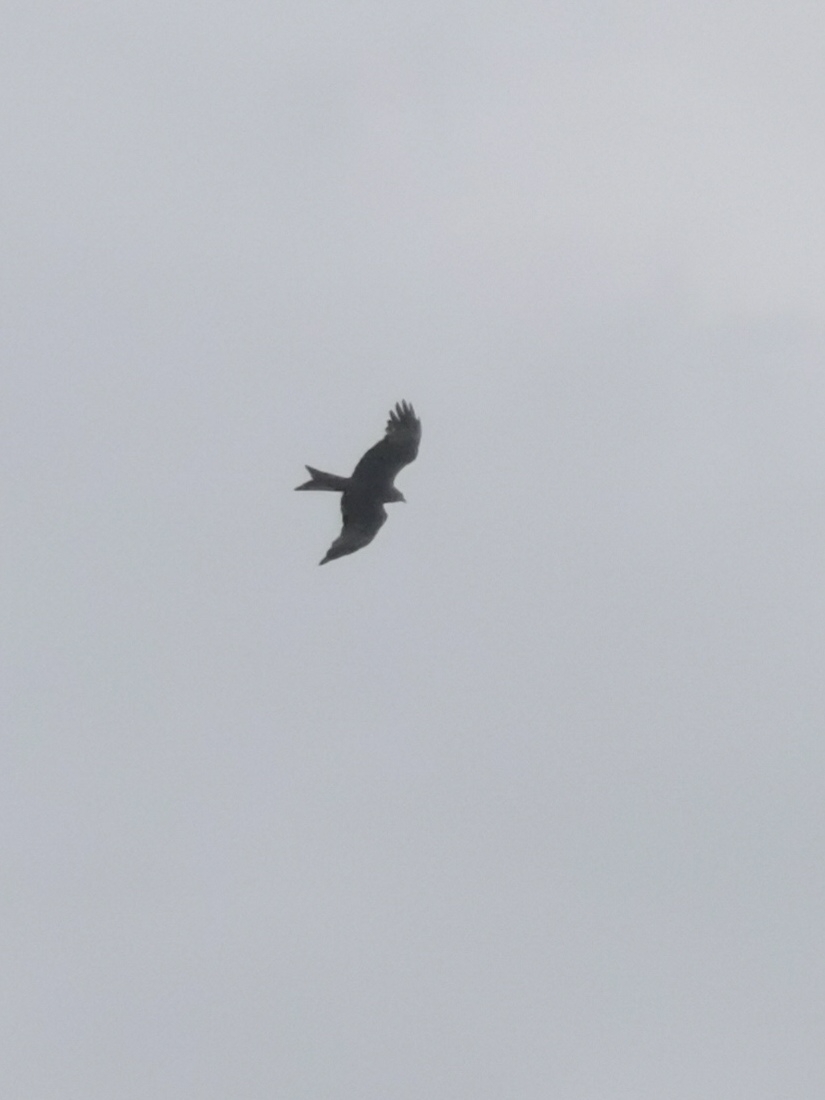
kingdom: Animalia
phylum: Chordata
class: Aves
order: Accipitriformes
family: Accipitridae
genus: Milvus
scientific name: Milvus milvus
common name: Red kite
